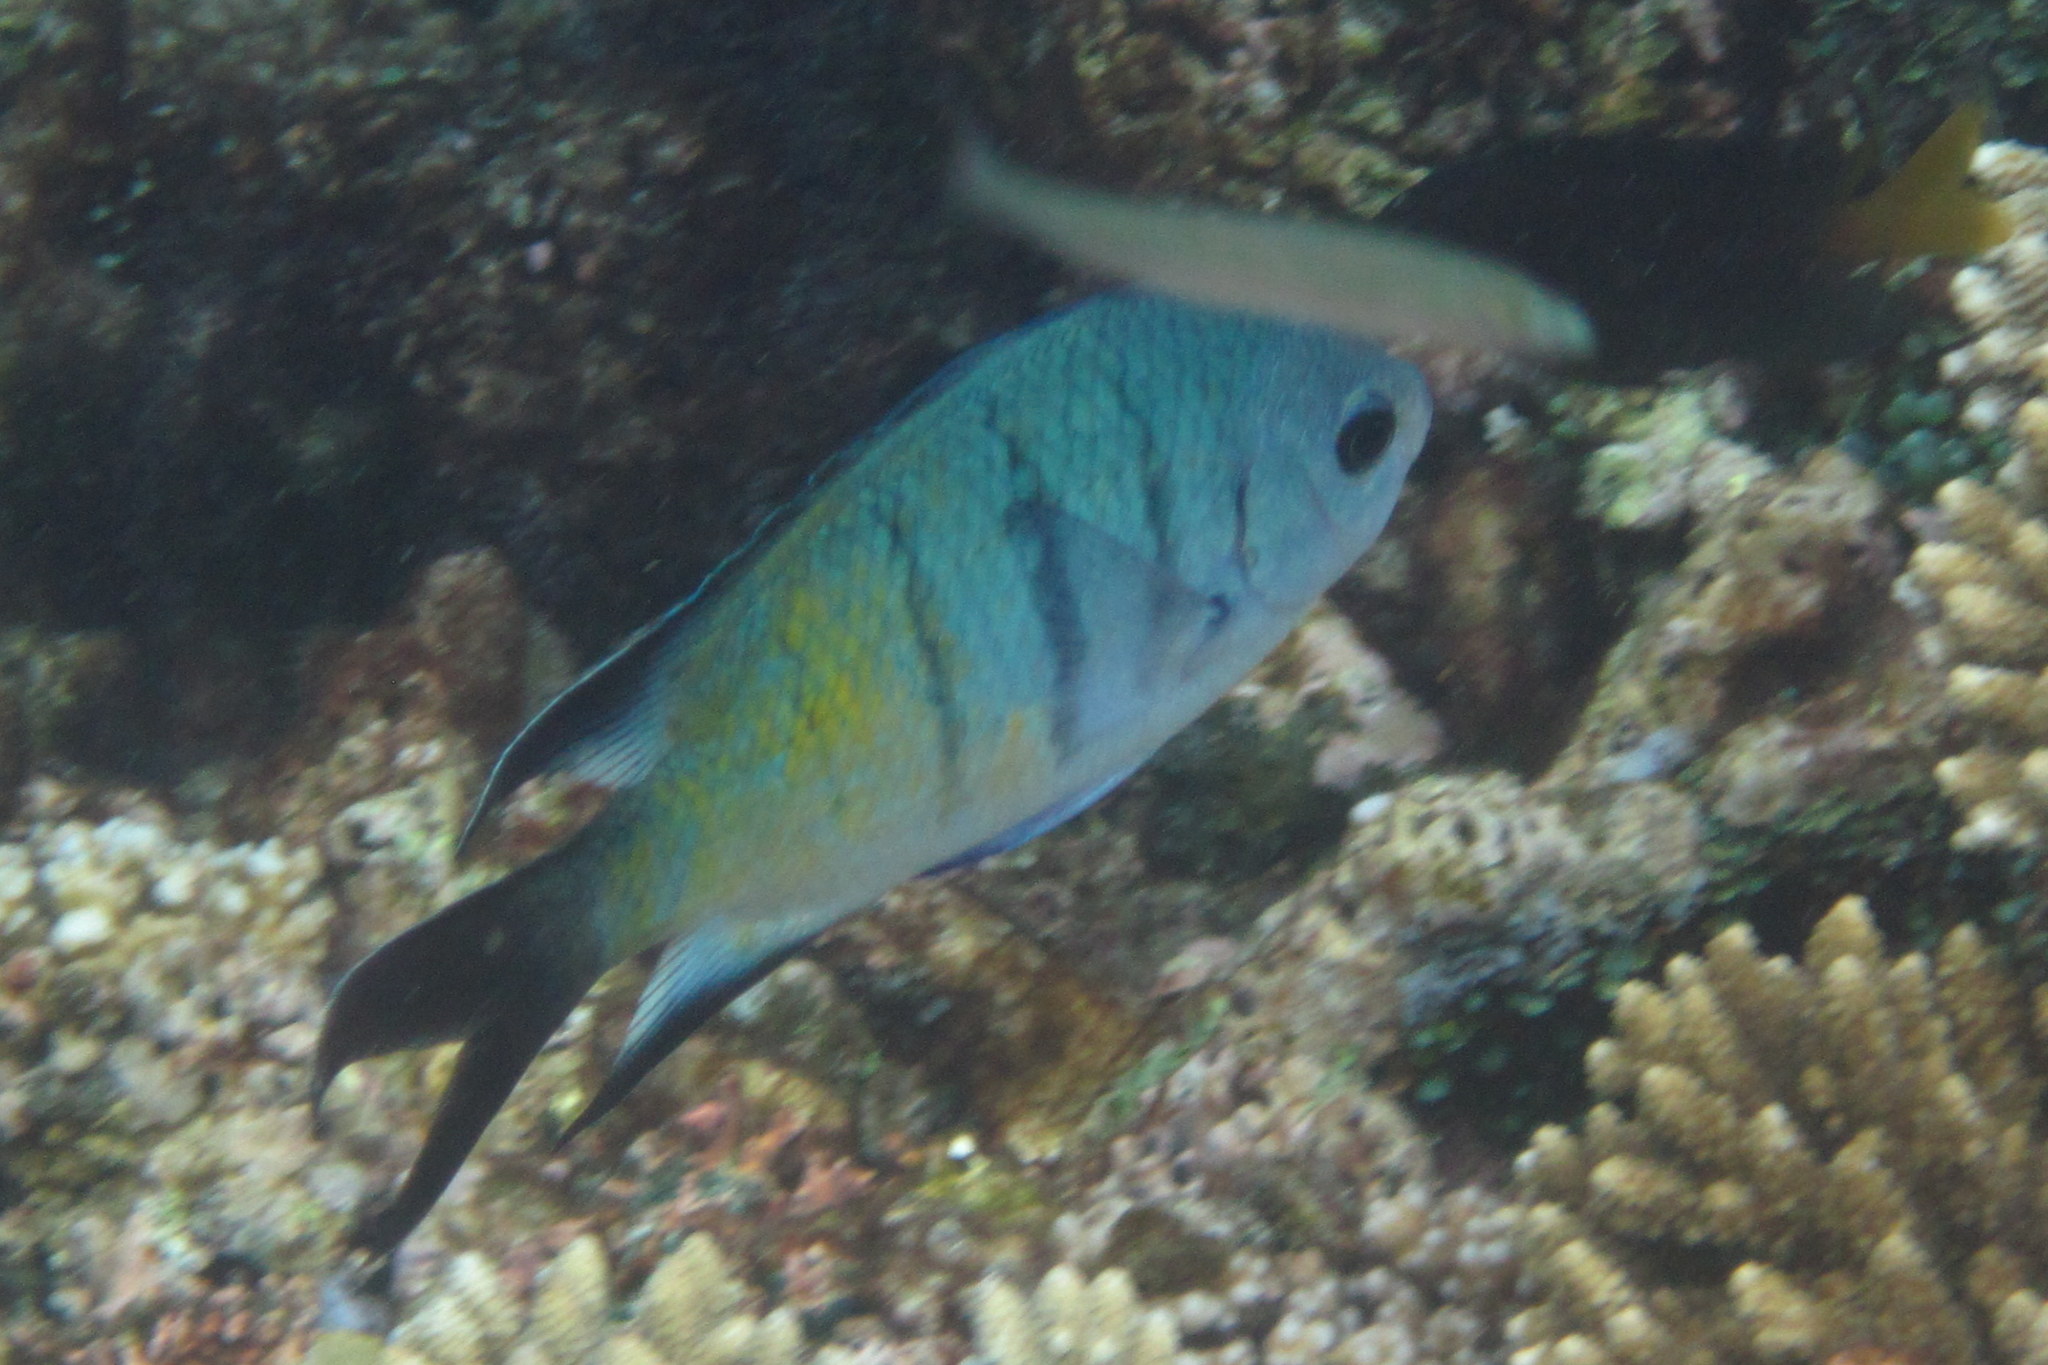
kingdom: Animalia
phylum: Chordata
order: Perciformes
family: Pomacentridae
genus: Abudefduf
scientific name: Abudefduf whitleyi
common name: Whitley's seargent
